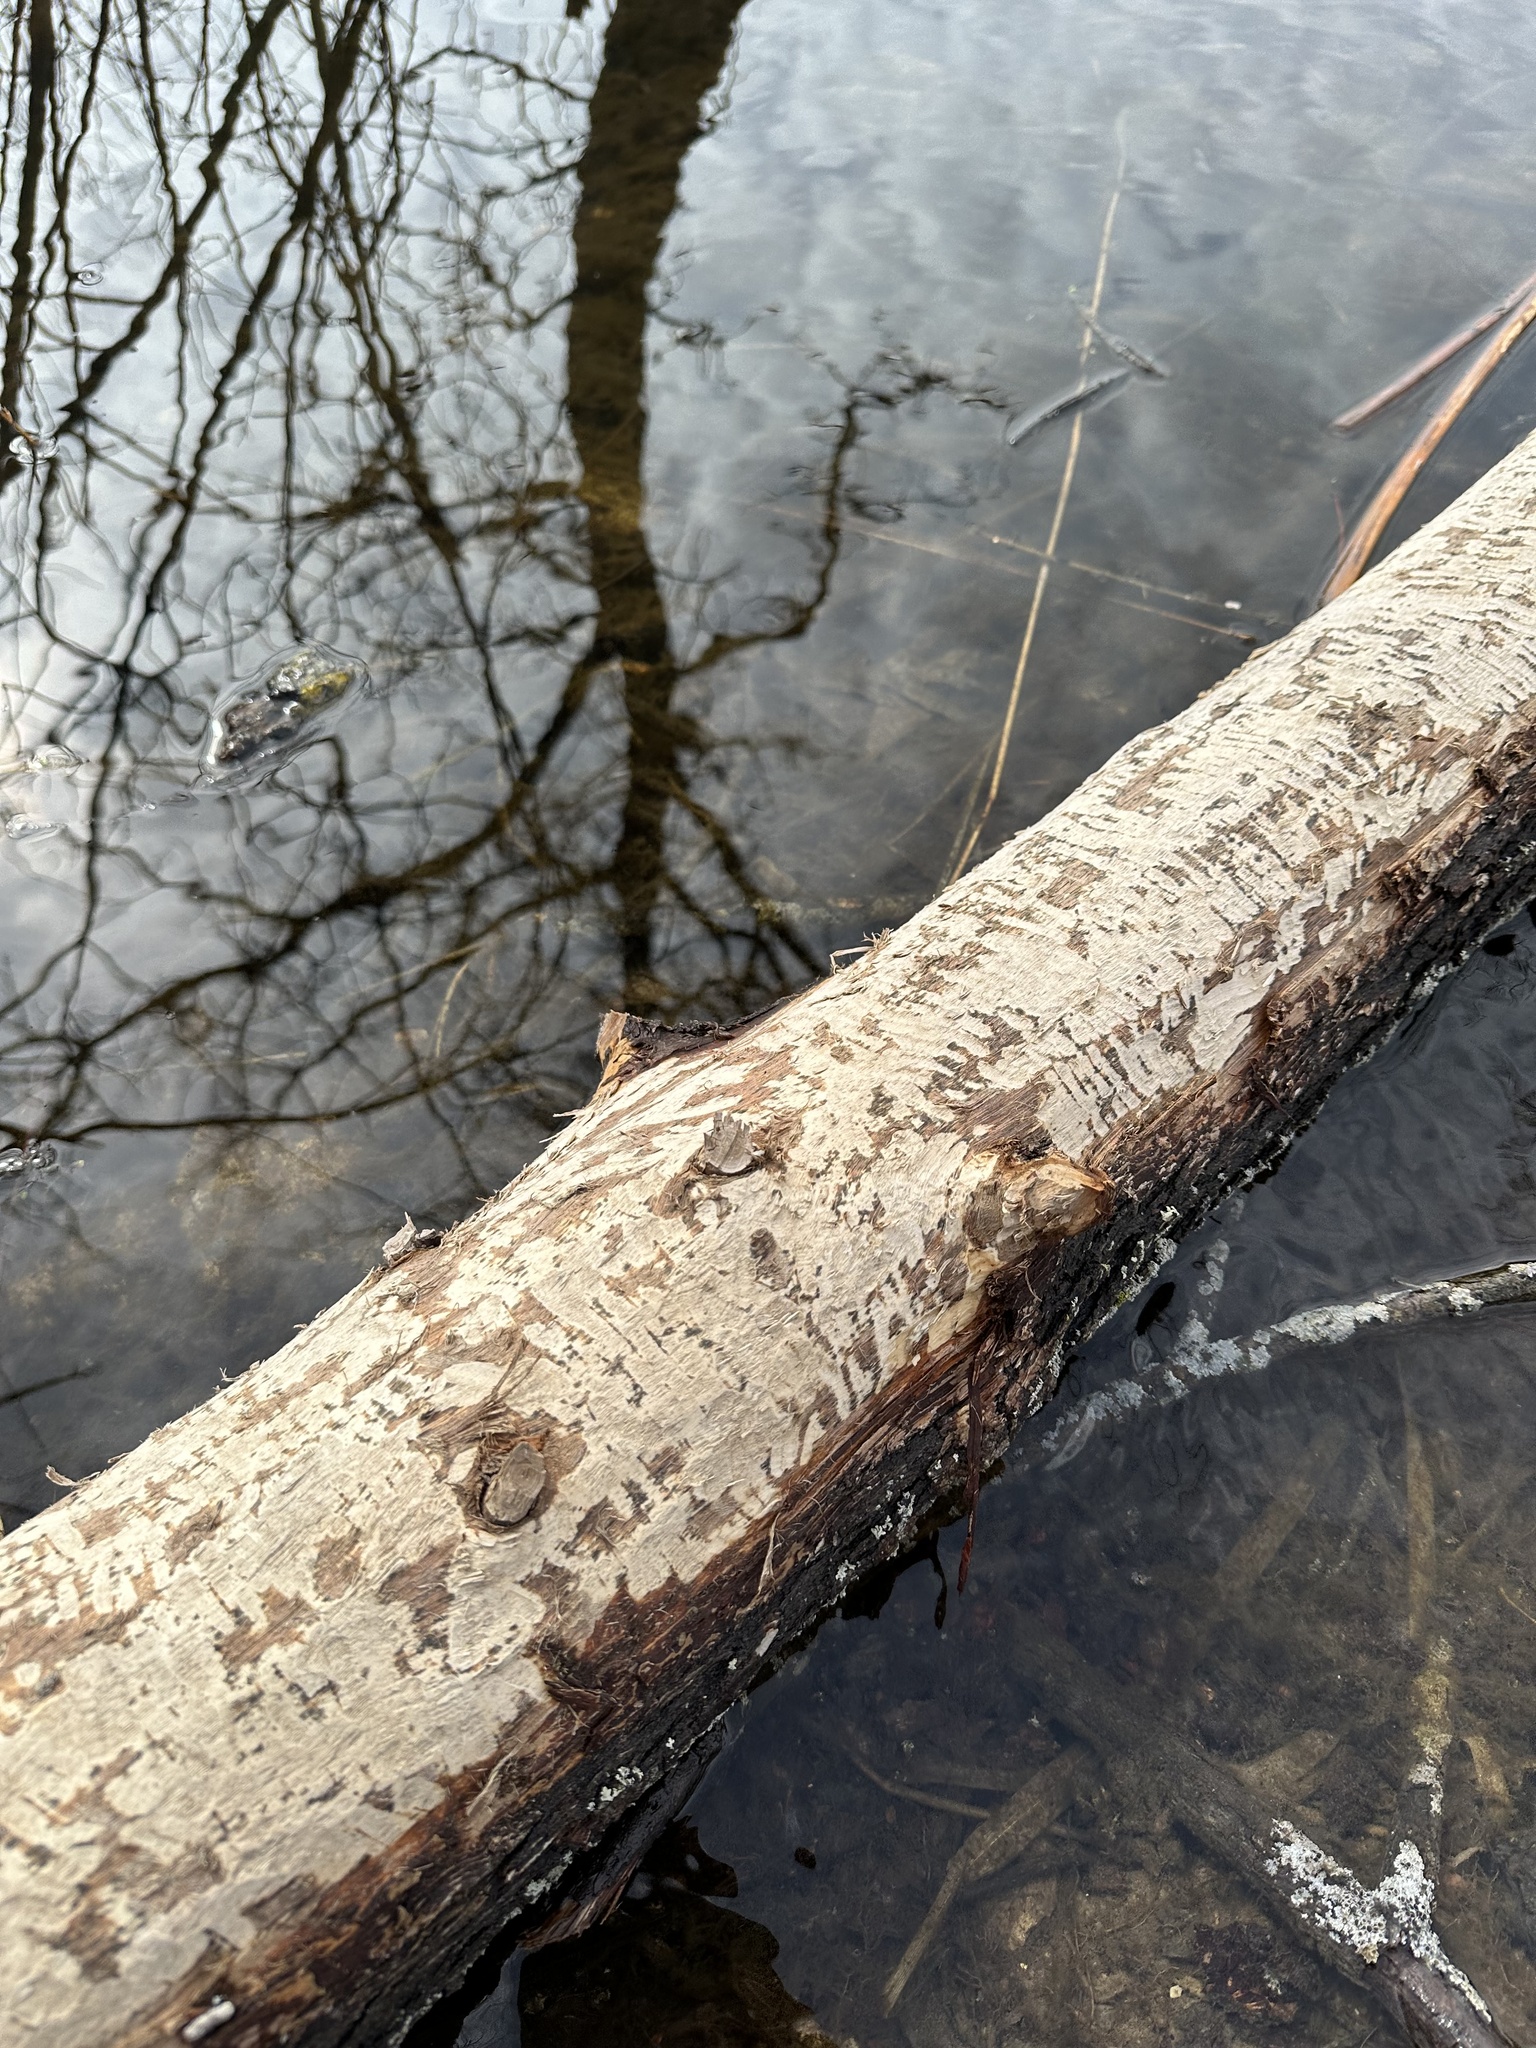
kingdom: Animalia
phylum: Chordata
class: Mammalia
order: Rodentia
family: Castoridae
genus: Castor
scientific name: Castor canadensis
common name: American beaver
